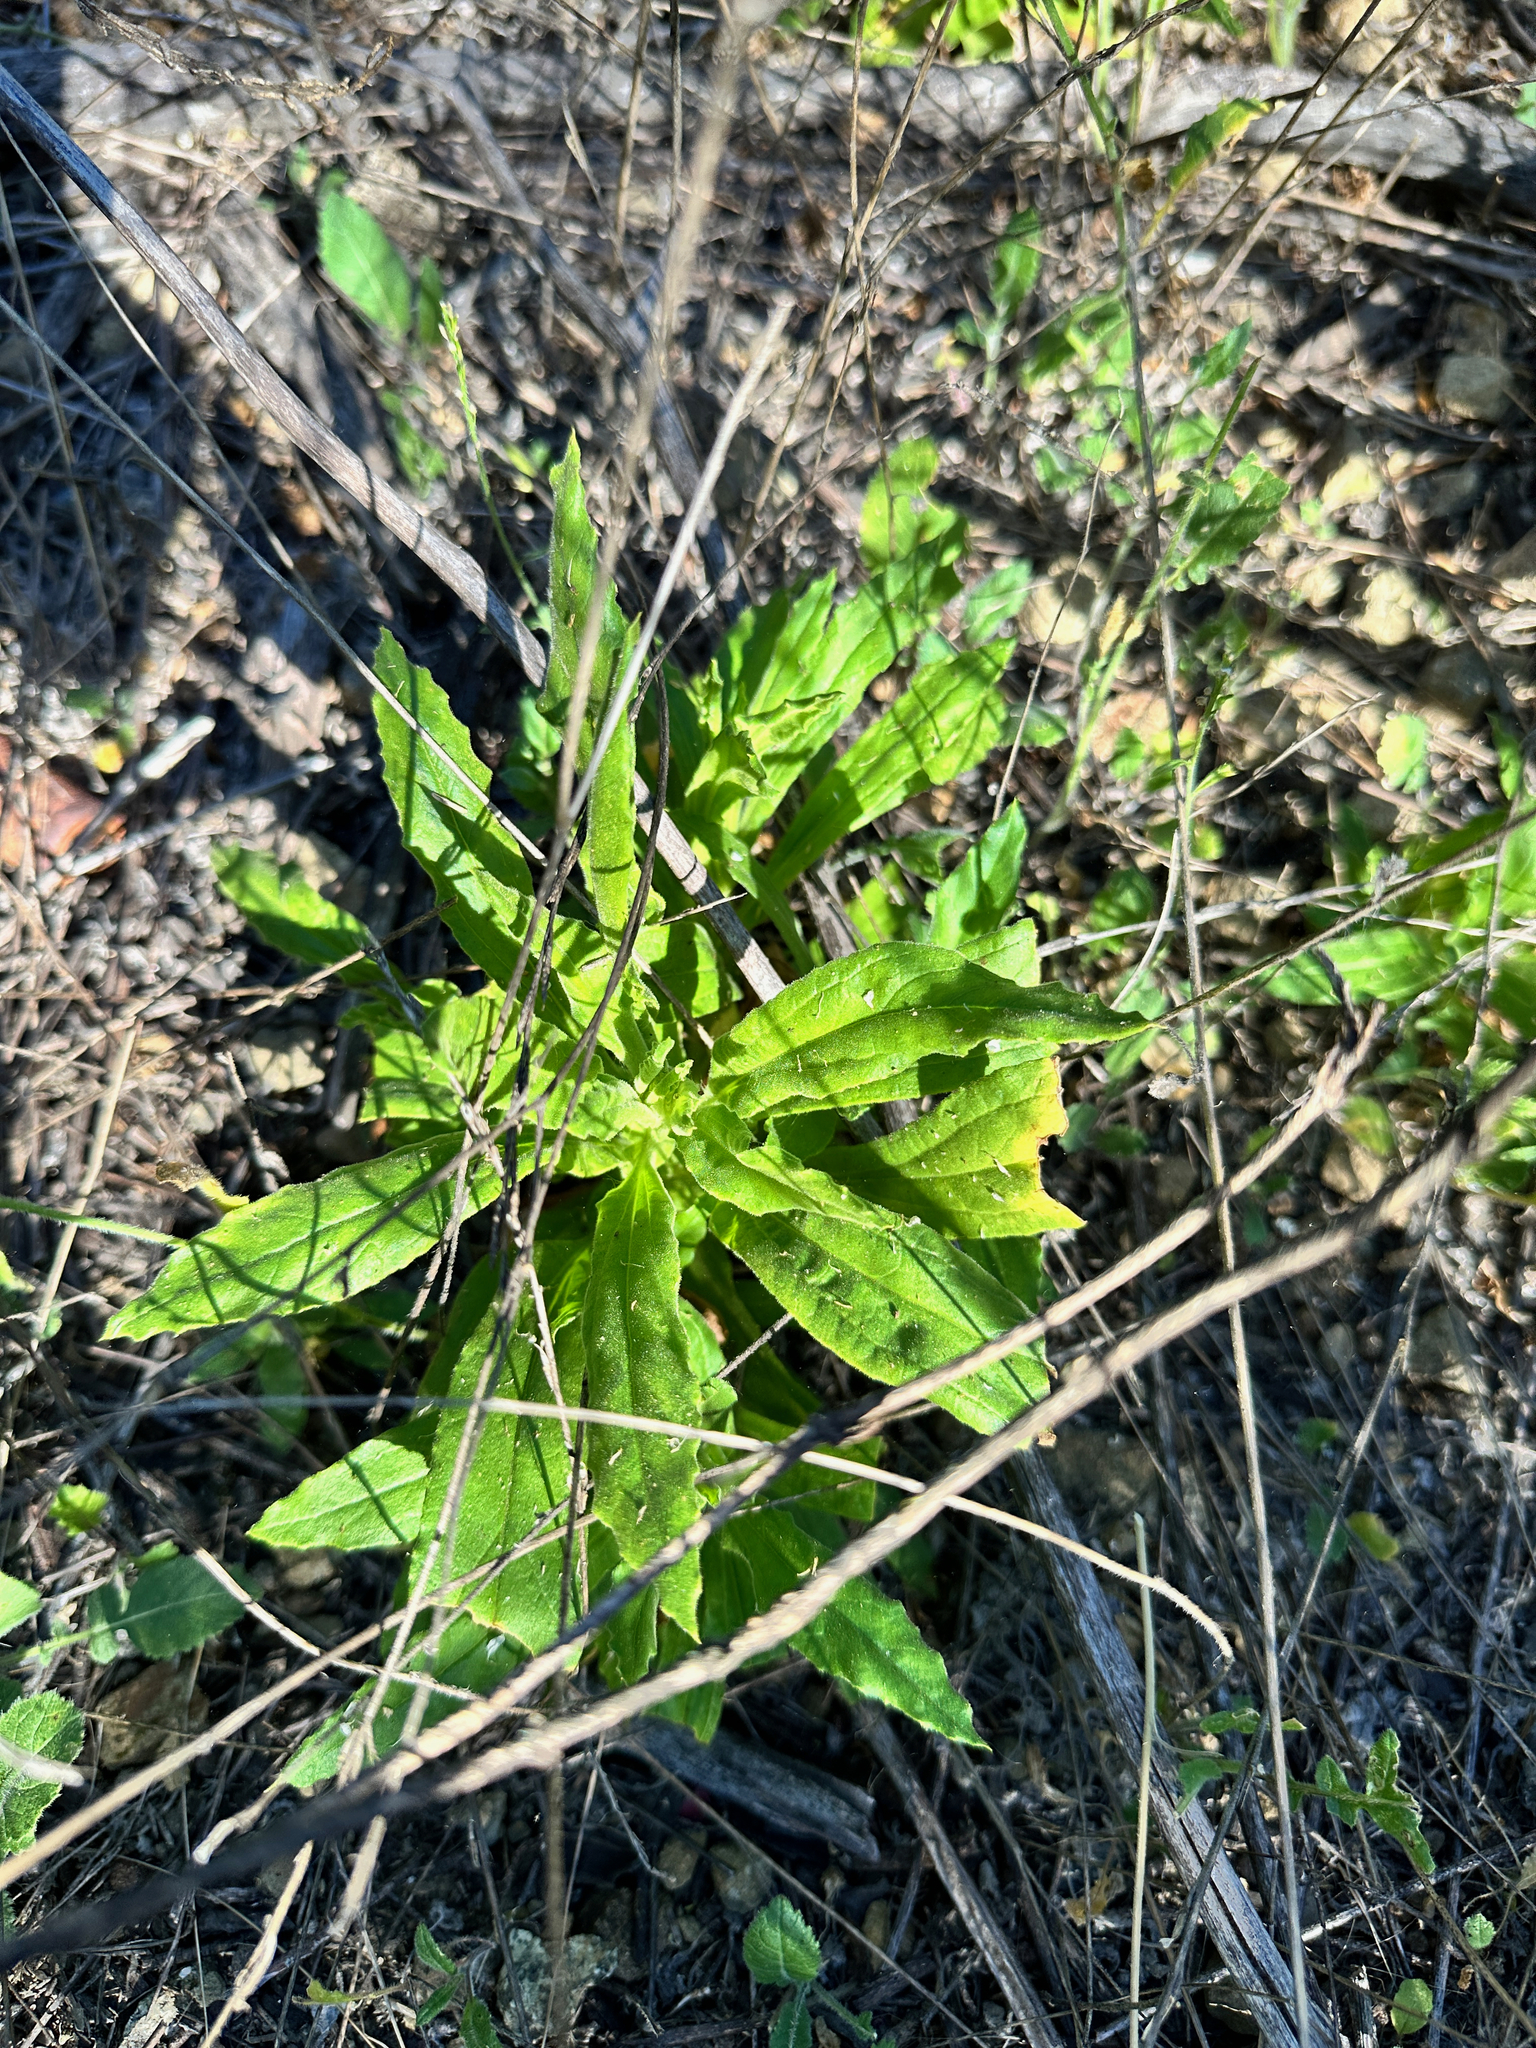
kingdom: Plantae
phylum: Tracheophyta
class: Magnoliopsida
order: Asterales
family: Asteraceae
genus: Pseudognaphalium
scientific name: Pseudognaphalium californicum
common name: California rabbit-tobacco
